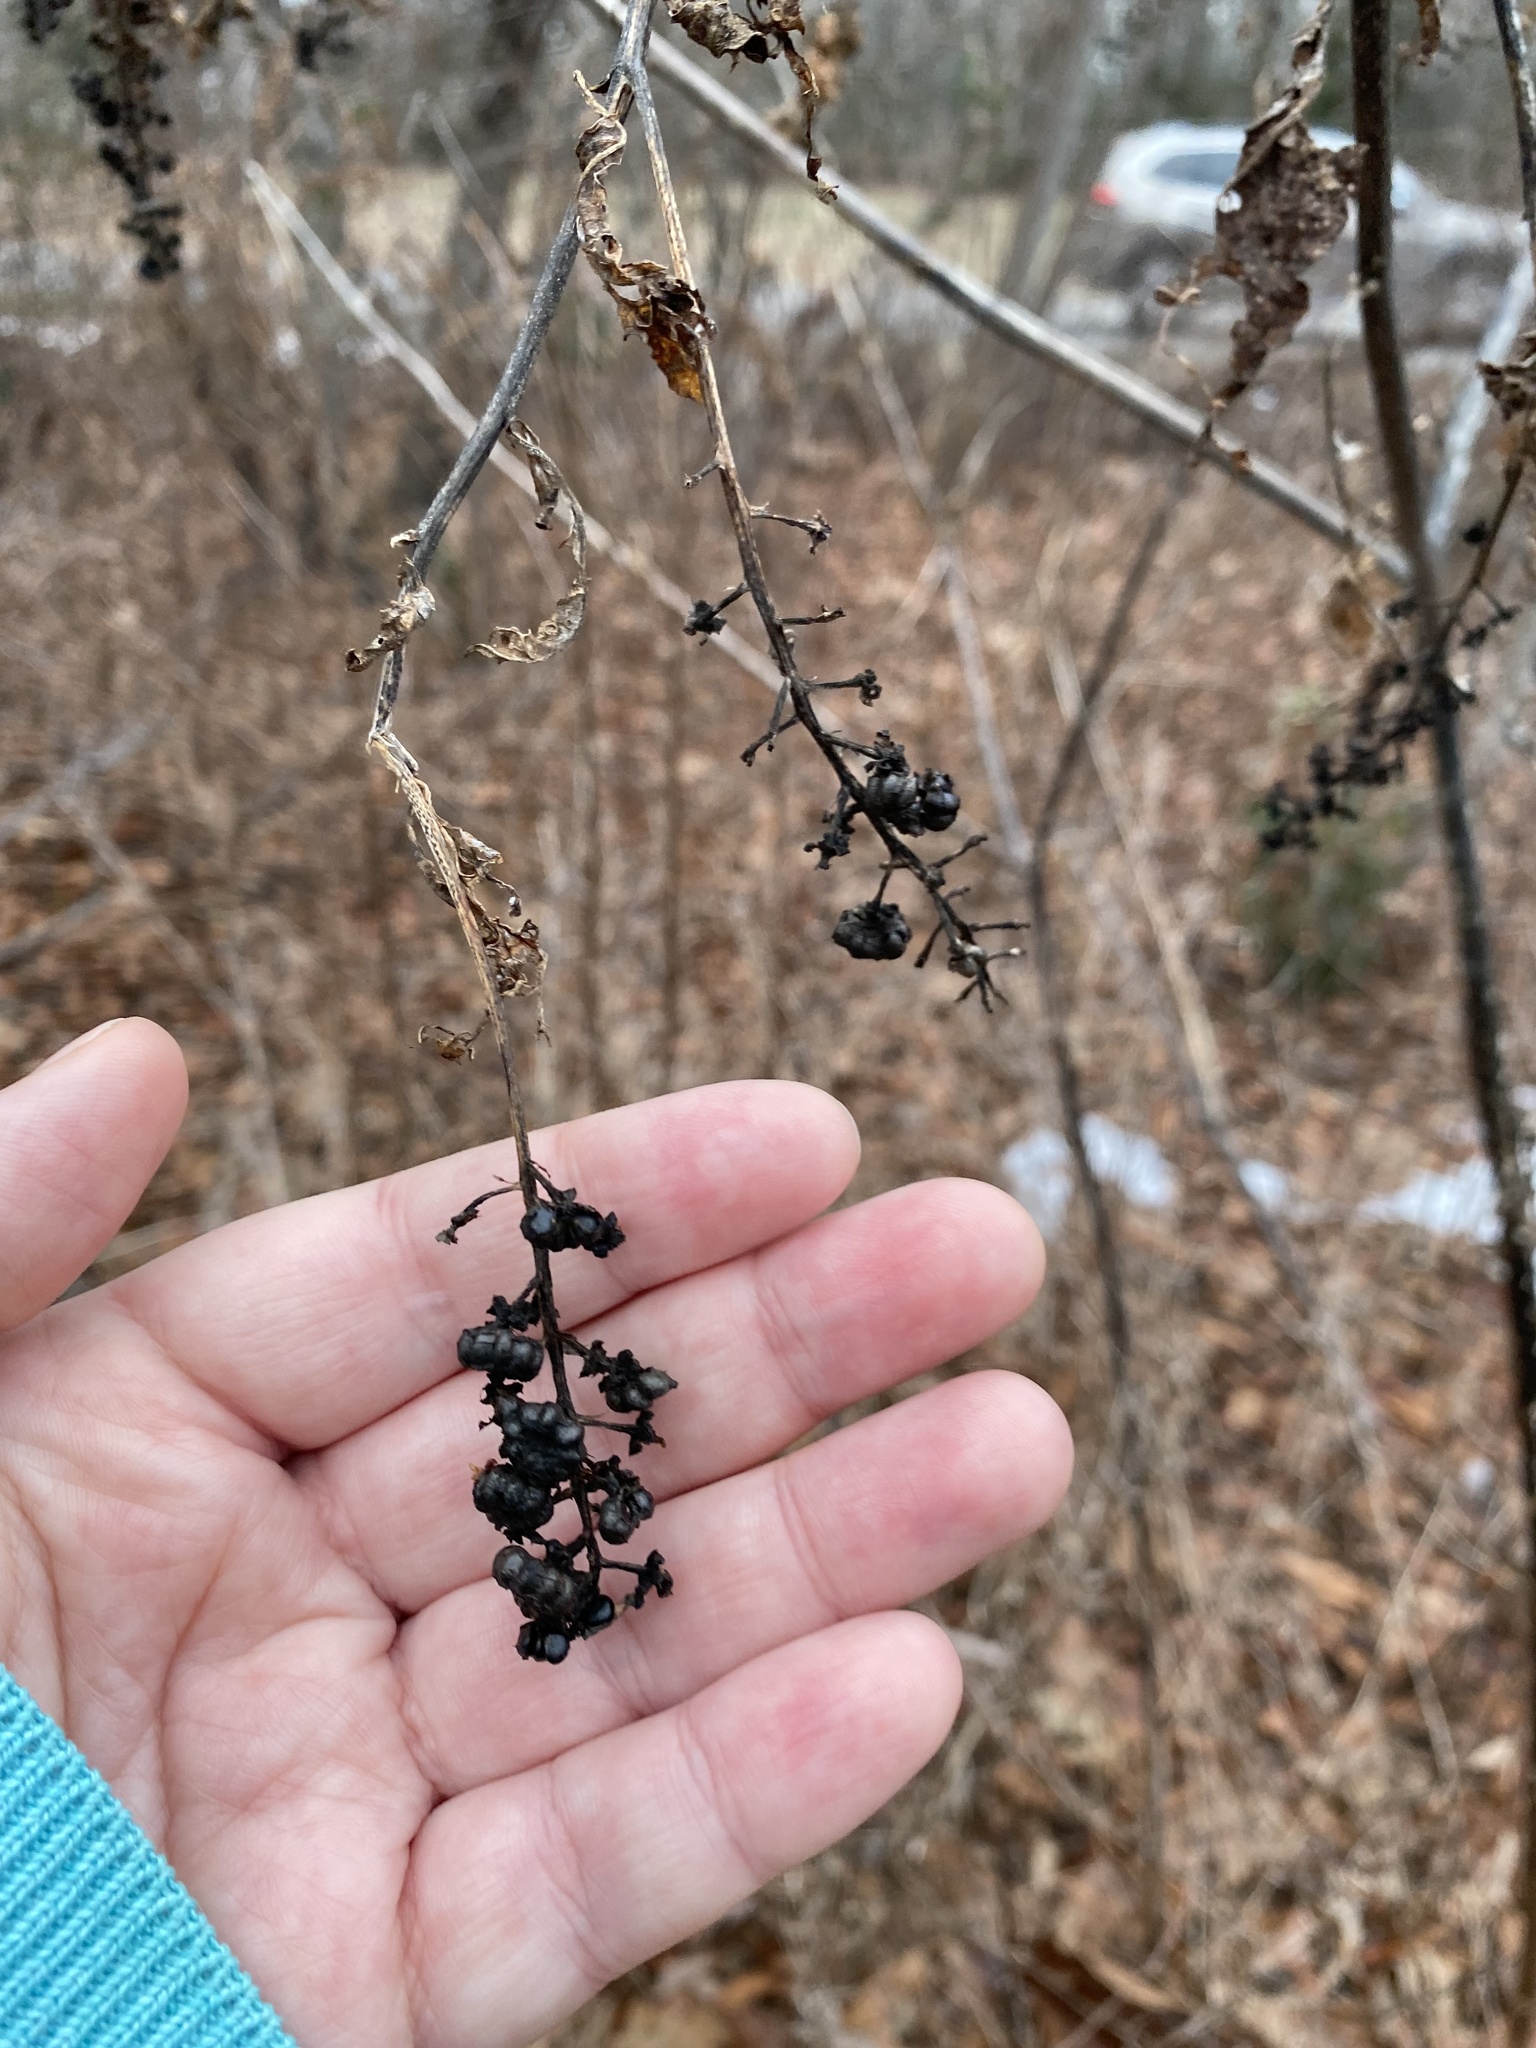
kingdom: Plantae
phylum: Tracheophyta
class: Magnoliopsida
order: Caryophyllales
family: Phytolaccaceae
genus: Phytolacca
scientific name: Phytolacca americana
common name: American pokeweed
